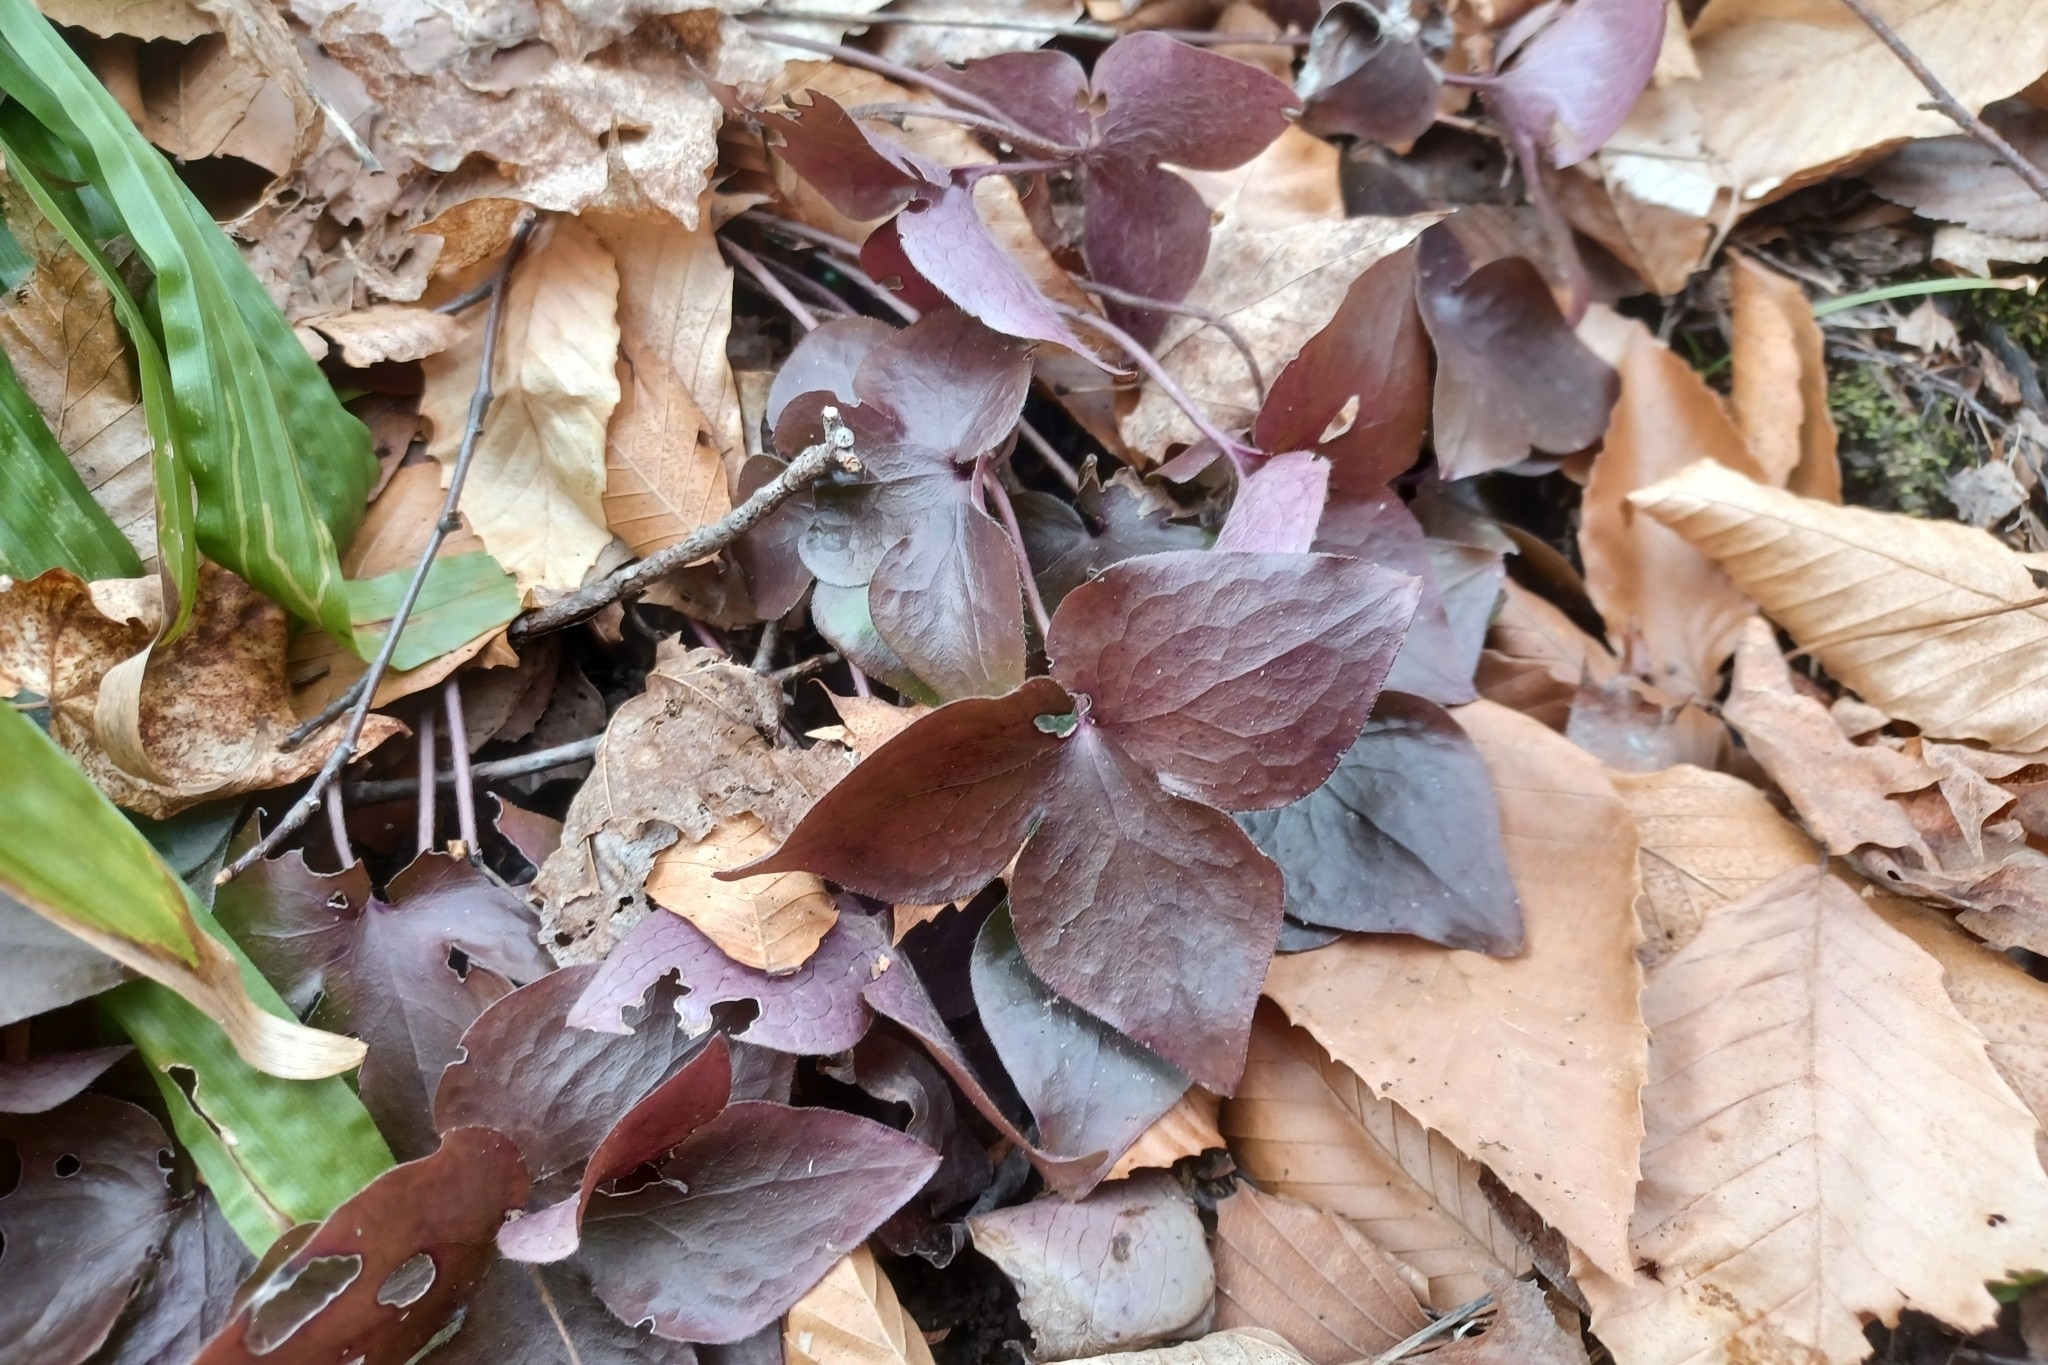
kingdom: Plantae
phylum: Tracheophyta
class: Magnoliopsida
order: Ranunculales
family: Ranunculaceae
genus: Hepatica
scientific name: Hepatica acutiloba
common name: Sharp-lobed hepatica
